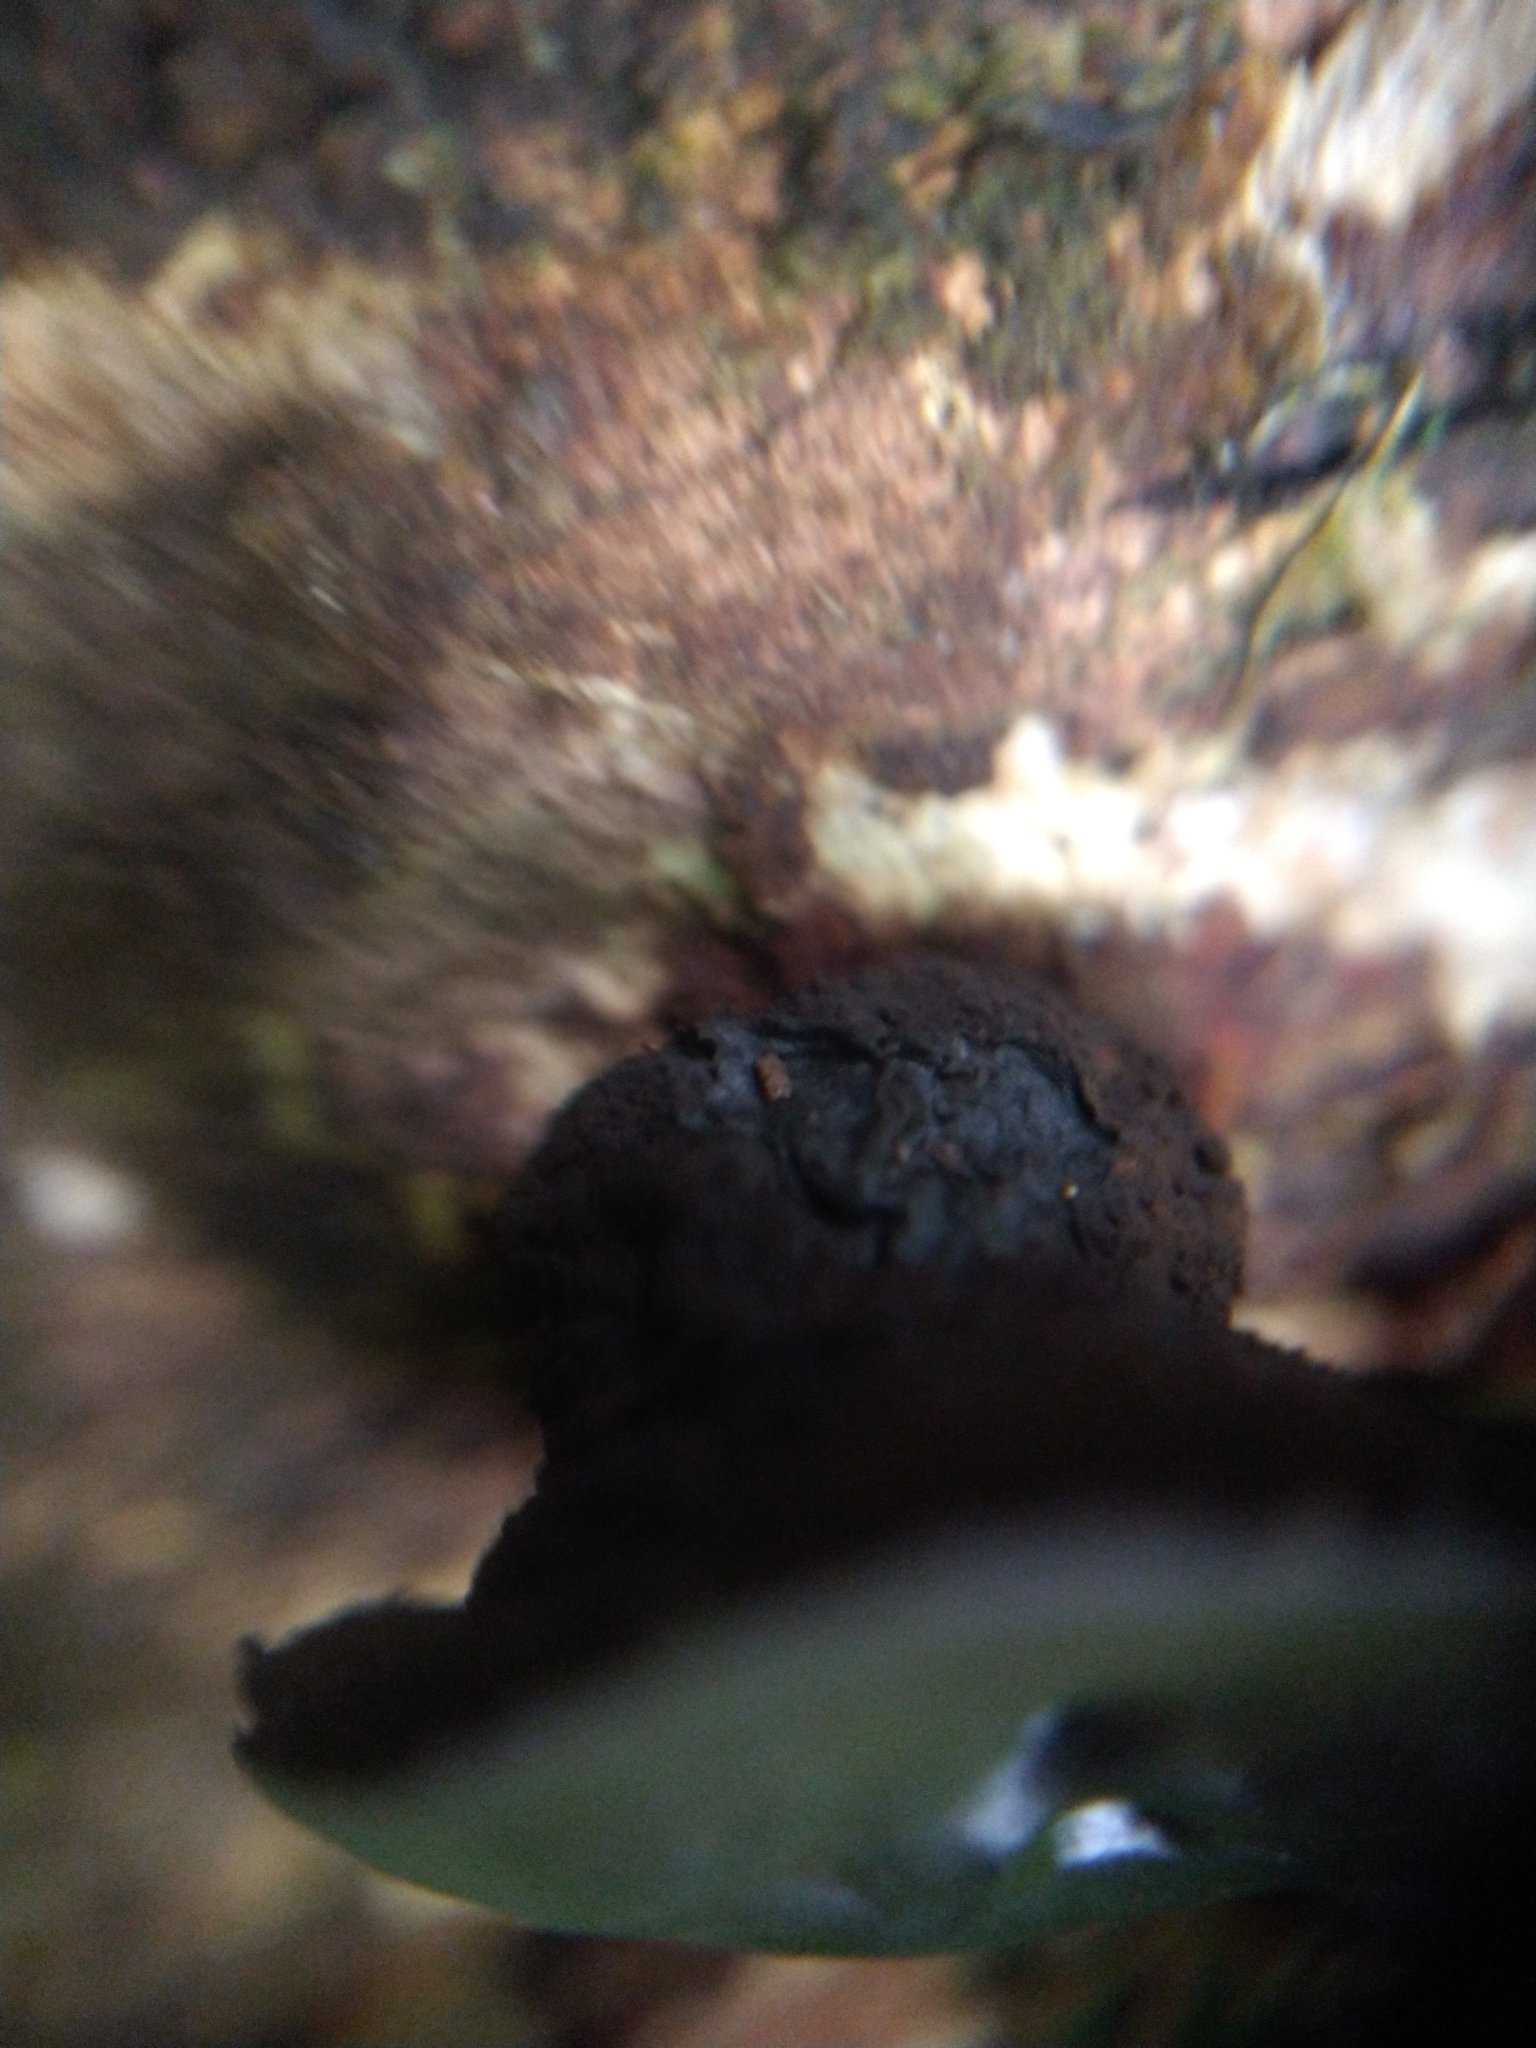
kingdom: Fungi
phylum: Ascomycota
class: Leotiomycetes
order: Phacidiales
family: Phacidiaceae
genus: Bulgaria
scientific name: Bulgaria inquinans
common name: Black bulgar
